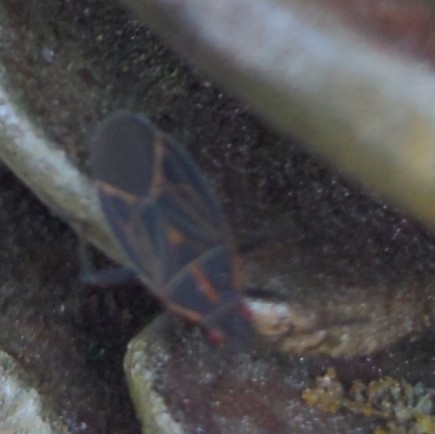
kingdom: Animalia
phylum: Arthropoda
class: Insecta
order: Hemiptera
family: Rhopalidae
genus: Boisea
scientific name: Boisea rubrolineata
